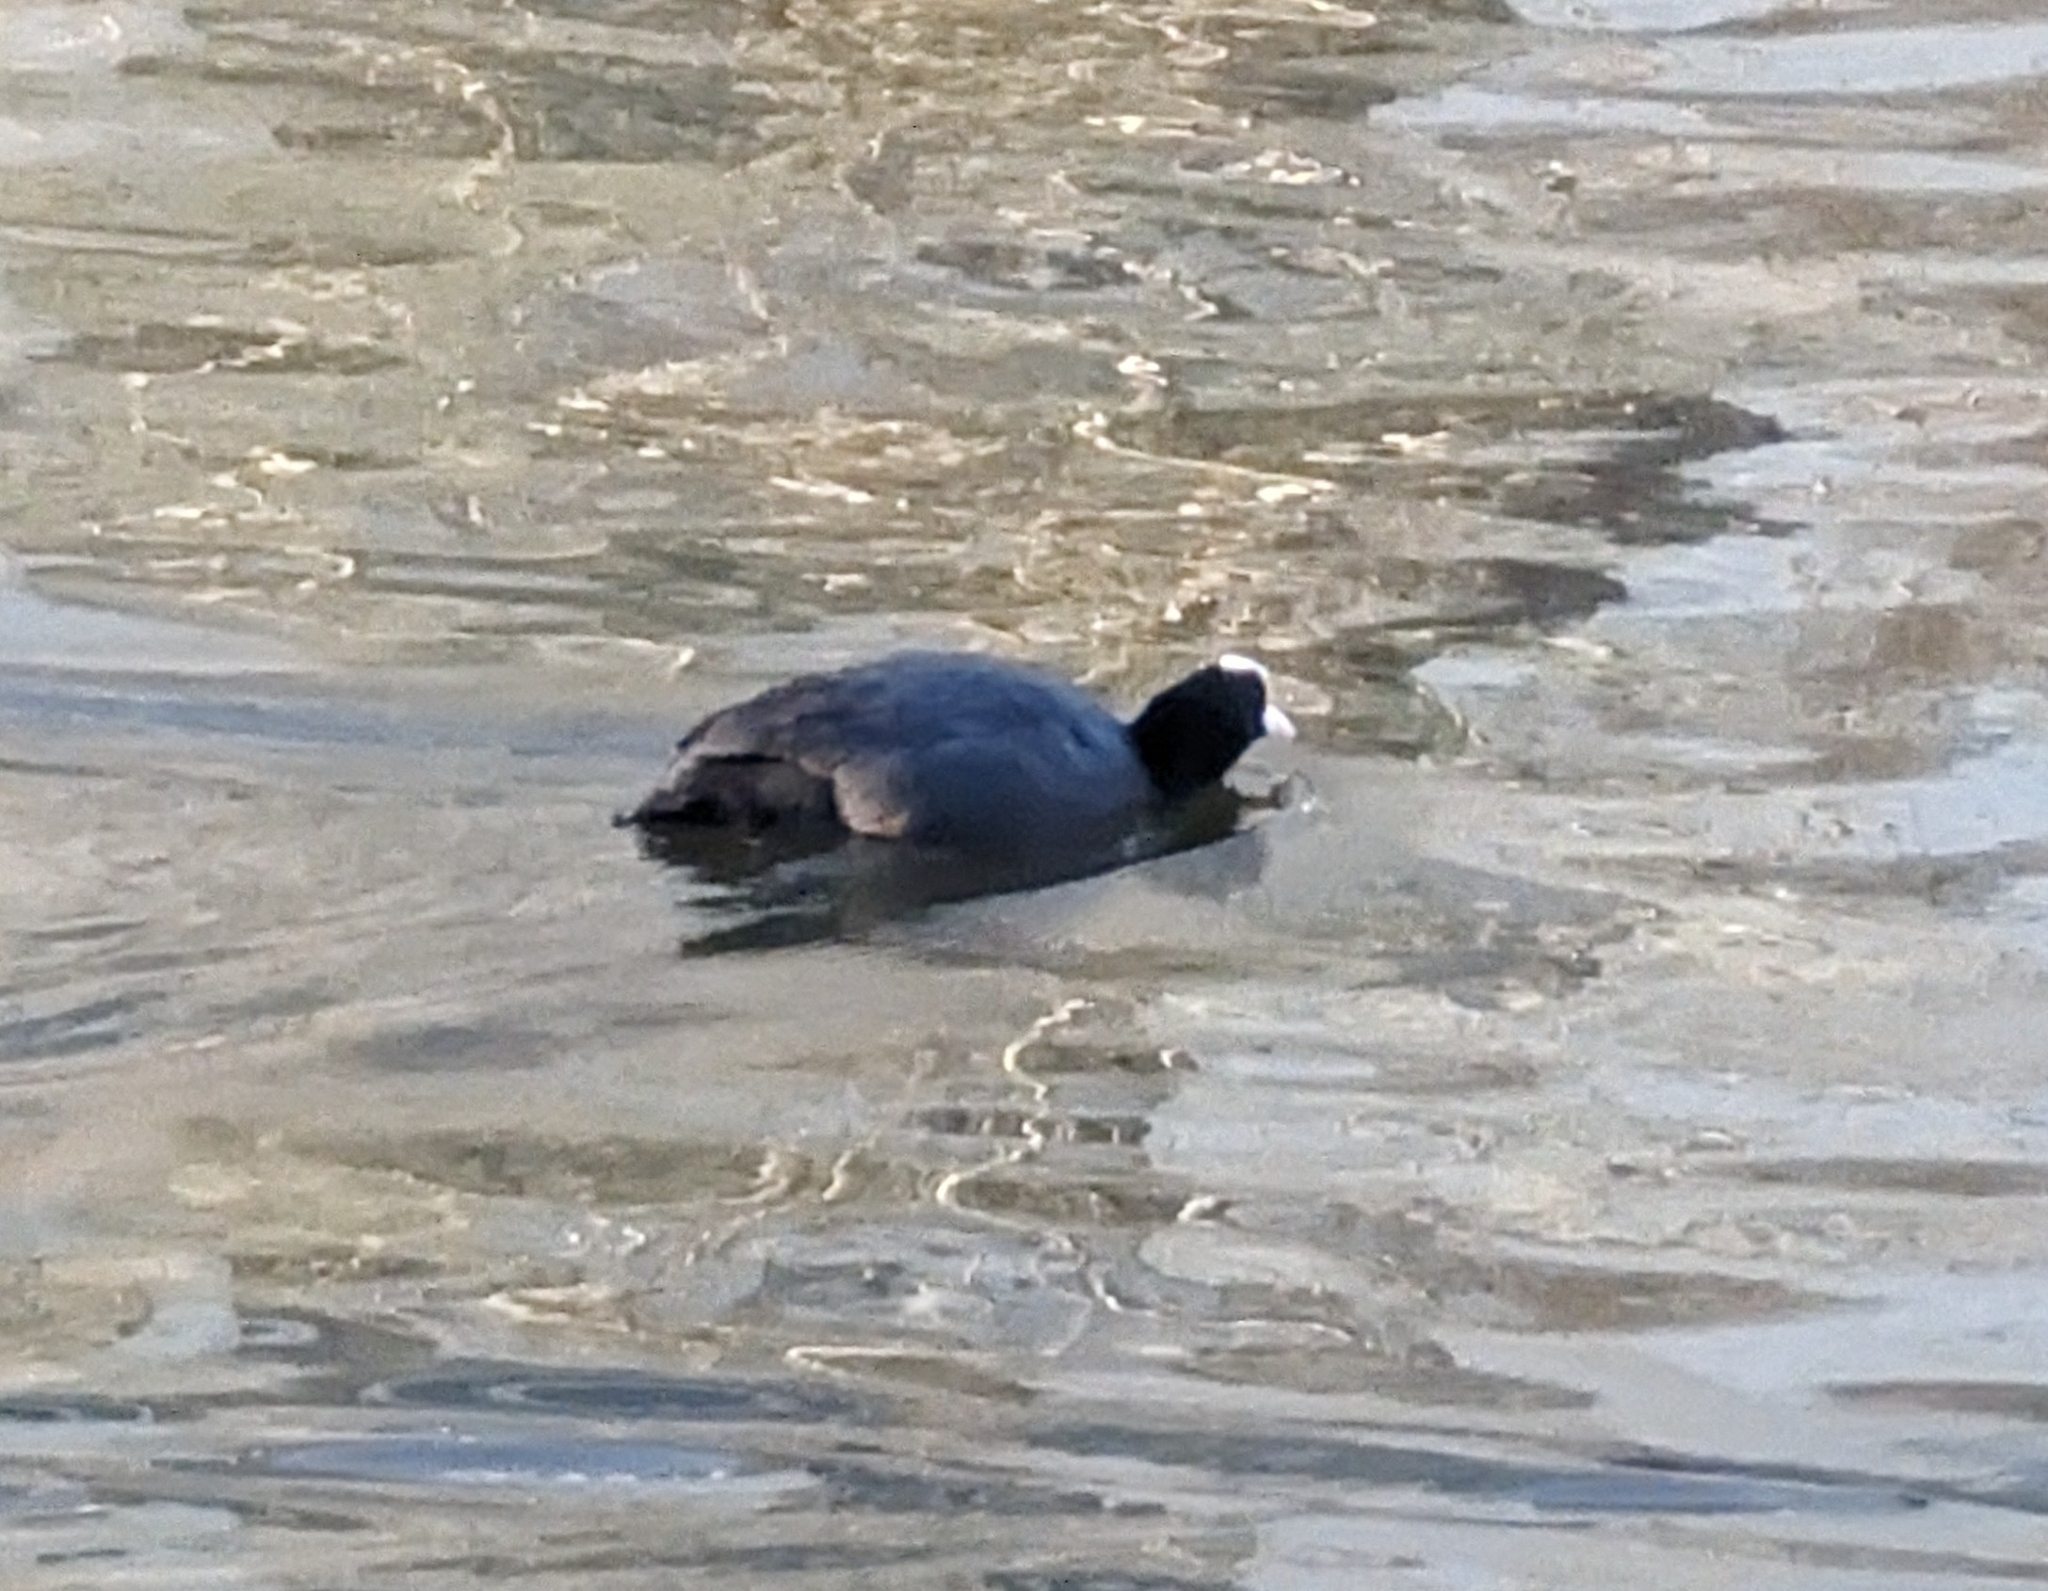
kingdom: Animalia
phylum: Chordata
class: Aves
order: Gruiformes
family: Rallidae
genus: Fulica
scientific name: Fulica atra
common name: Eurasian coot
